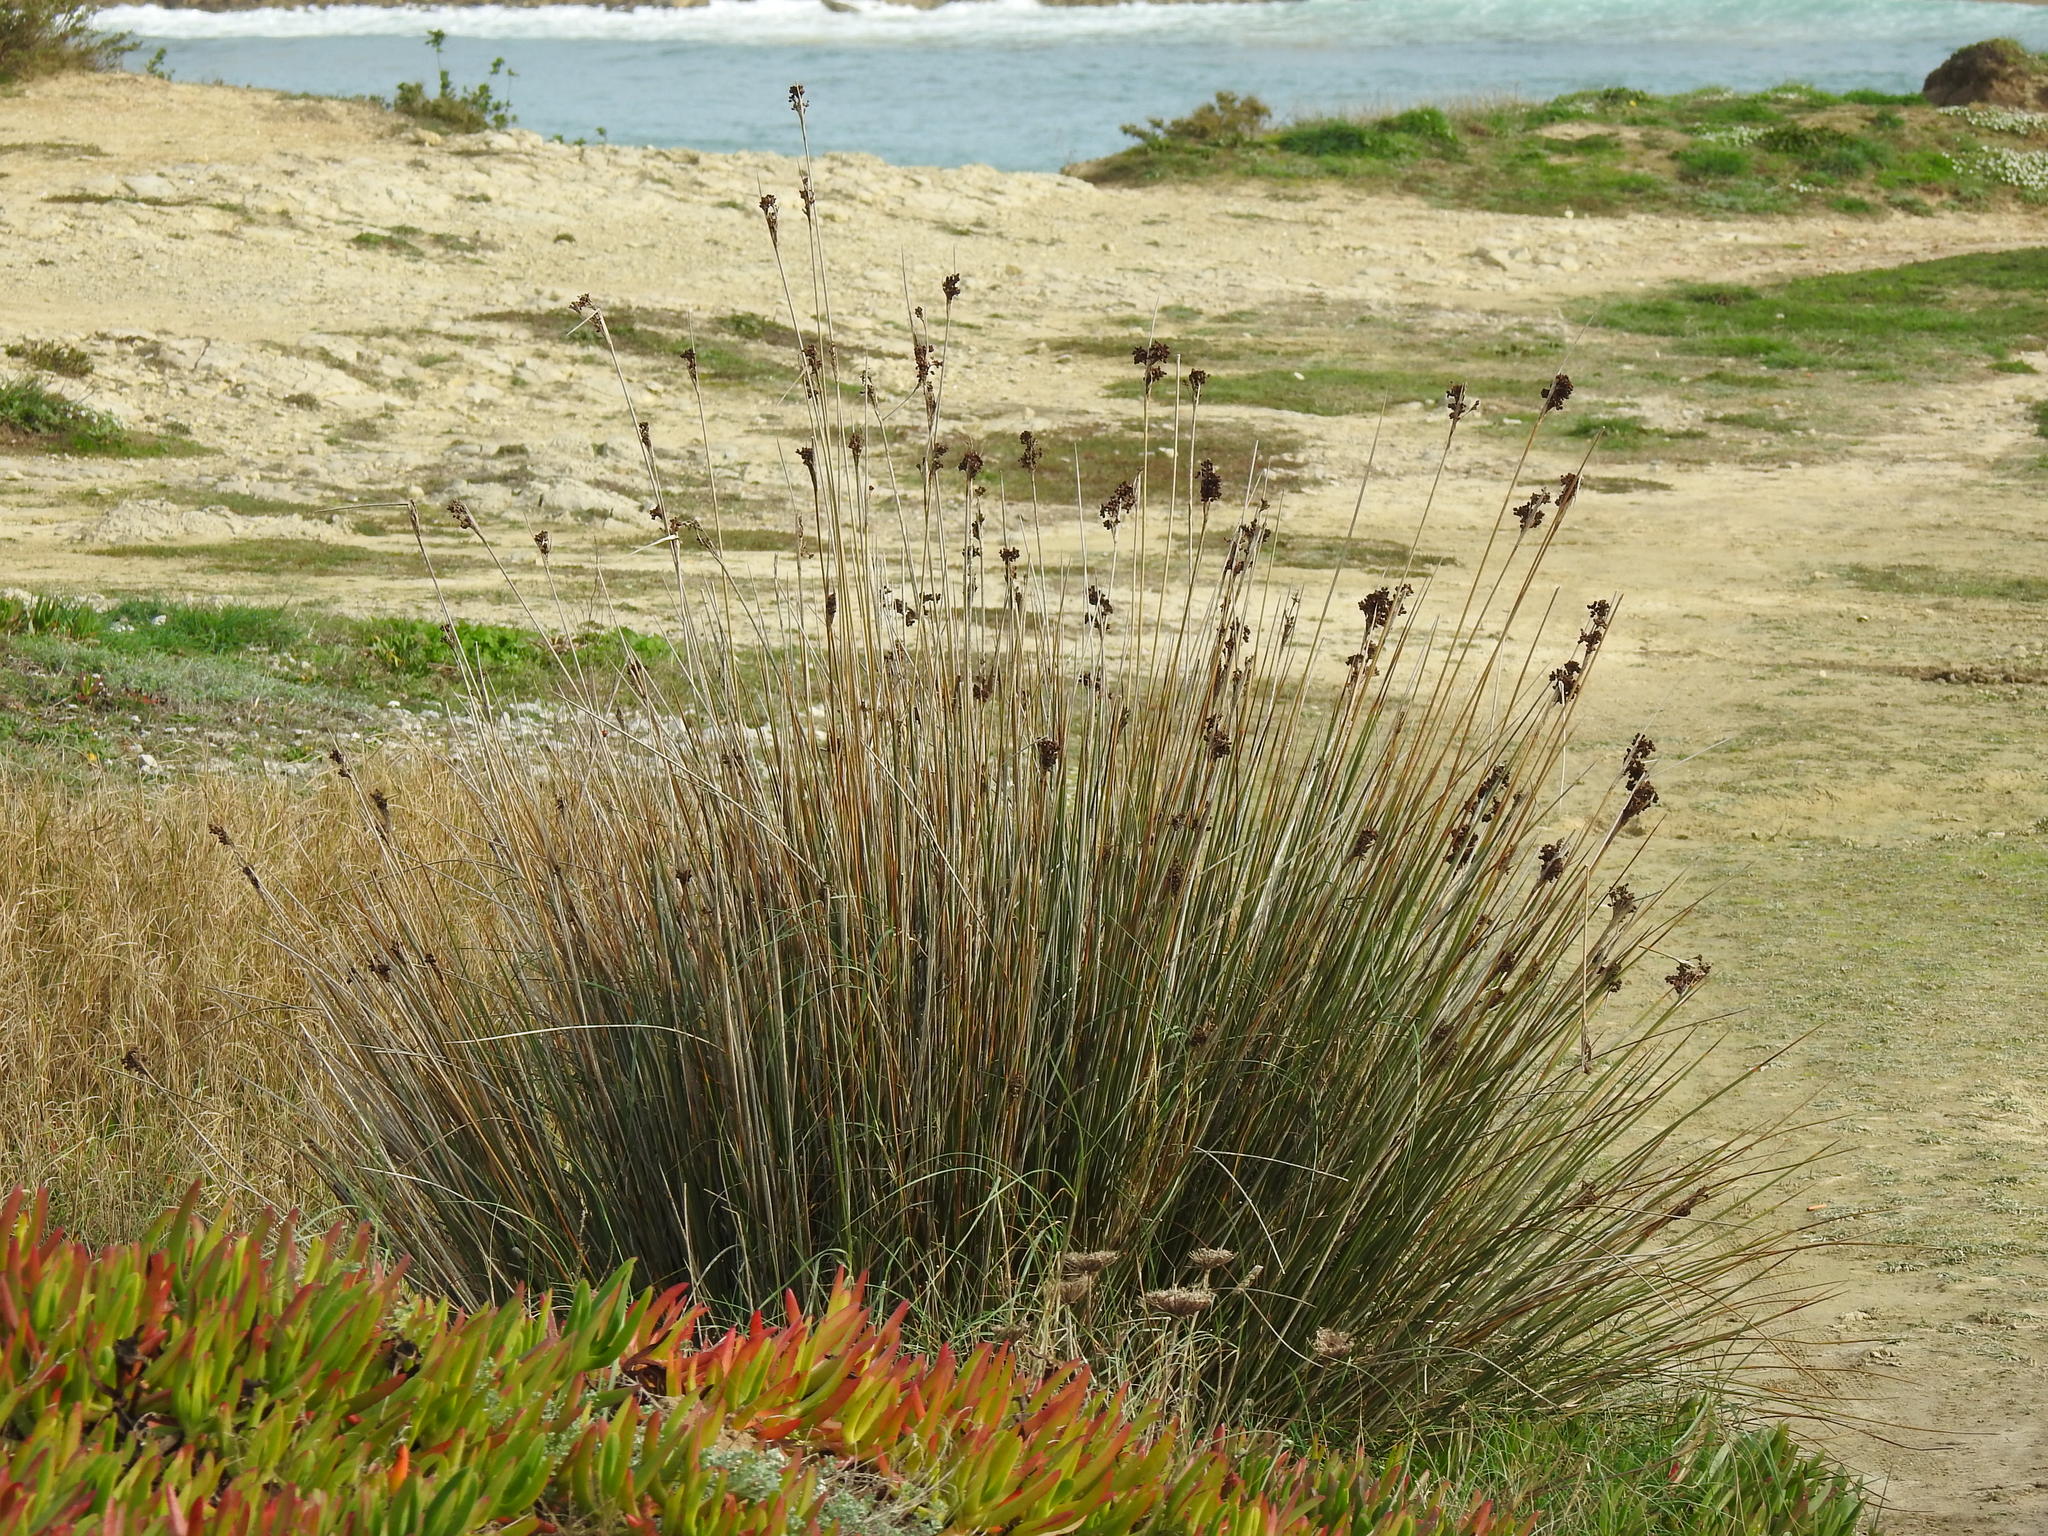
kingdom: Plantae
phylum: Tracheophyta
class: Liliopsida
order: Poales
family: Juncaceae
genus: Juncus
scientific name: Juncus acutus
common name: Sharp rush
